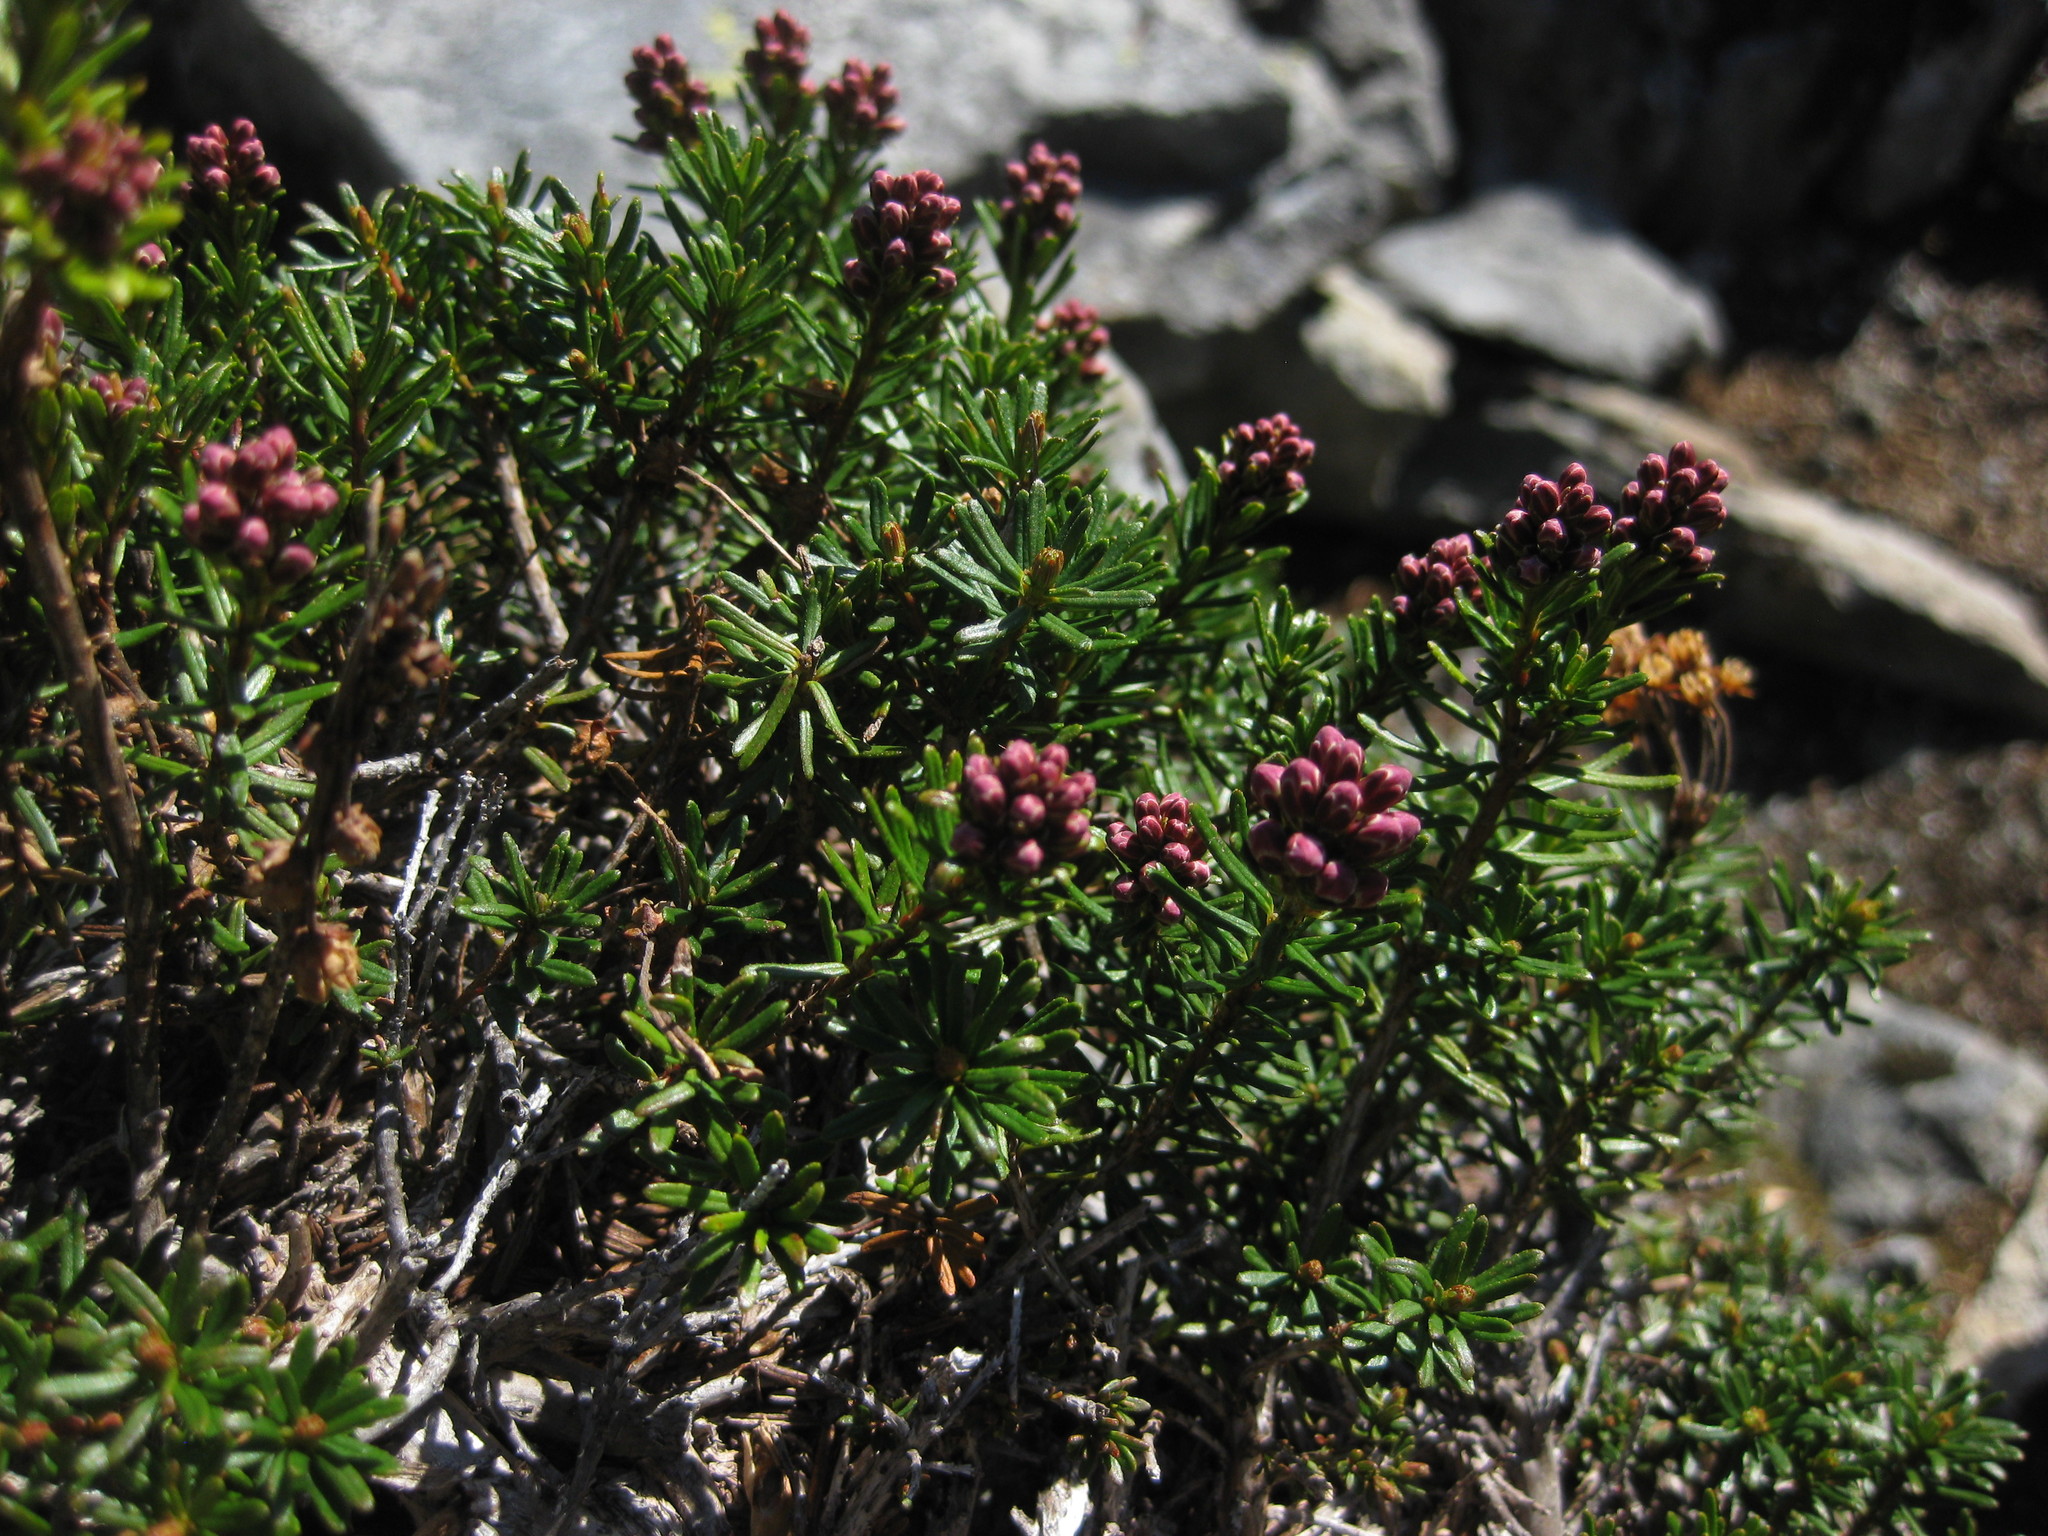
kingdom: Plantae
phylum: Tracheophyta
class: Magnoliopsida
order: Ericales
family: Ericaceae
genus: Phyllodoce
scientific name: Phyllodoce empetriformis
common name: Pink mountain heather
